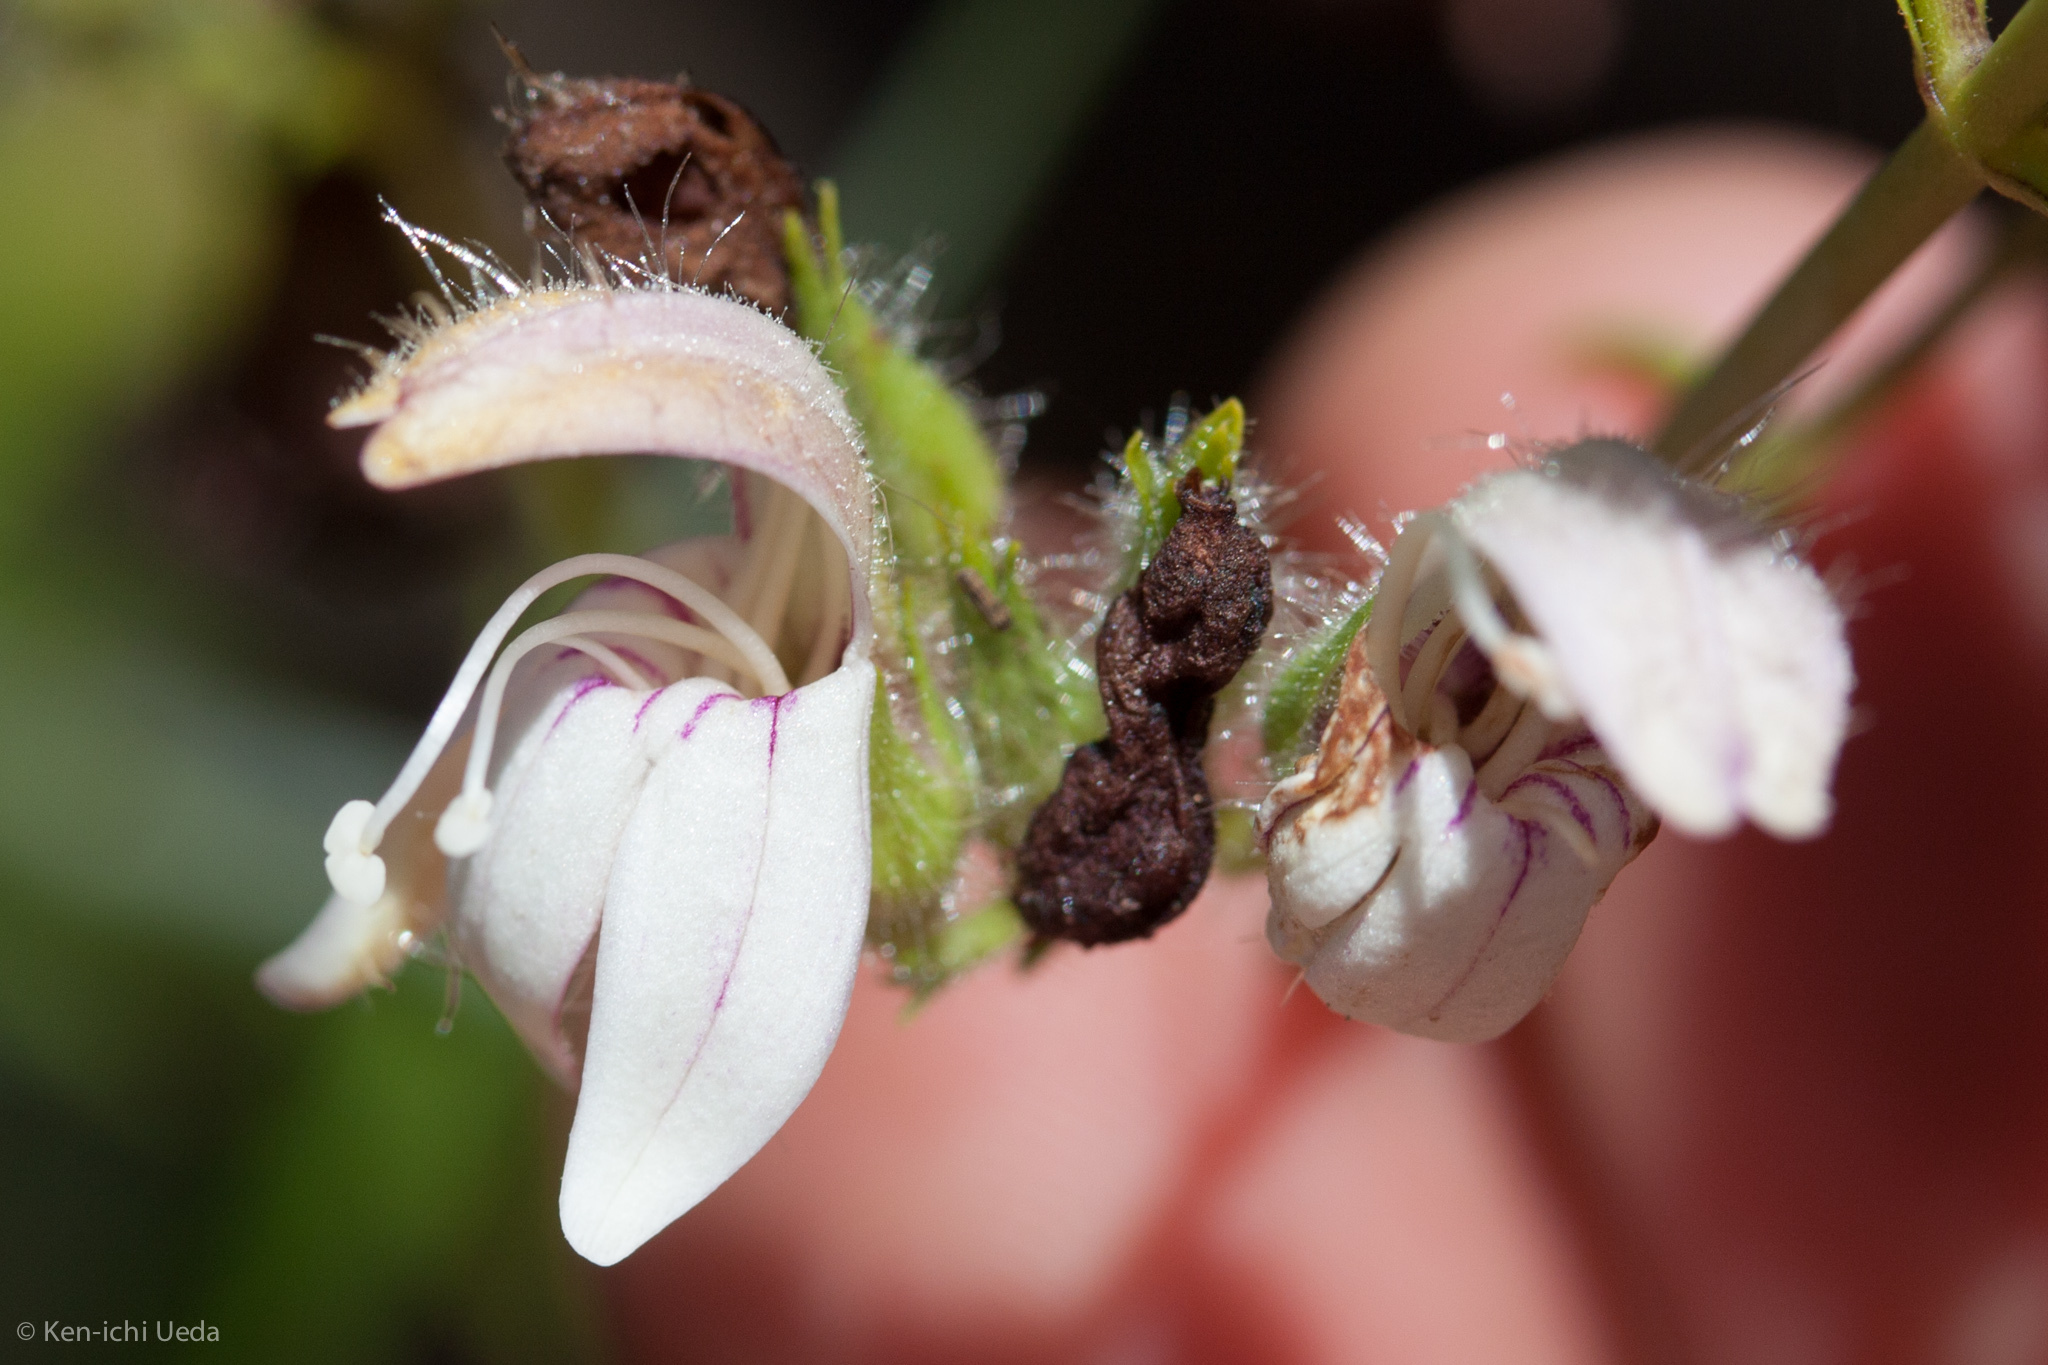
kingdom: Plantae
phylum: Tracheophyta
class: Magnoliopsida
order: Lamiales
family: Plantaginaceae
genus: Keckiella
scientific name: Keckiella breviflora
